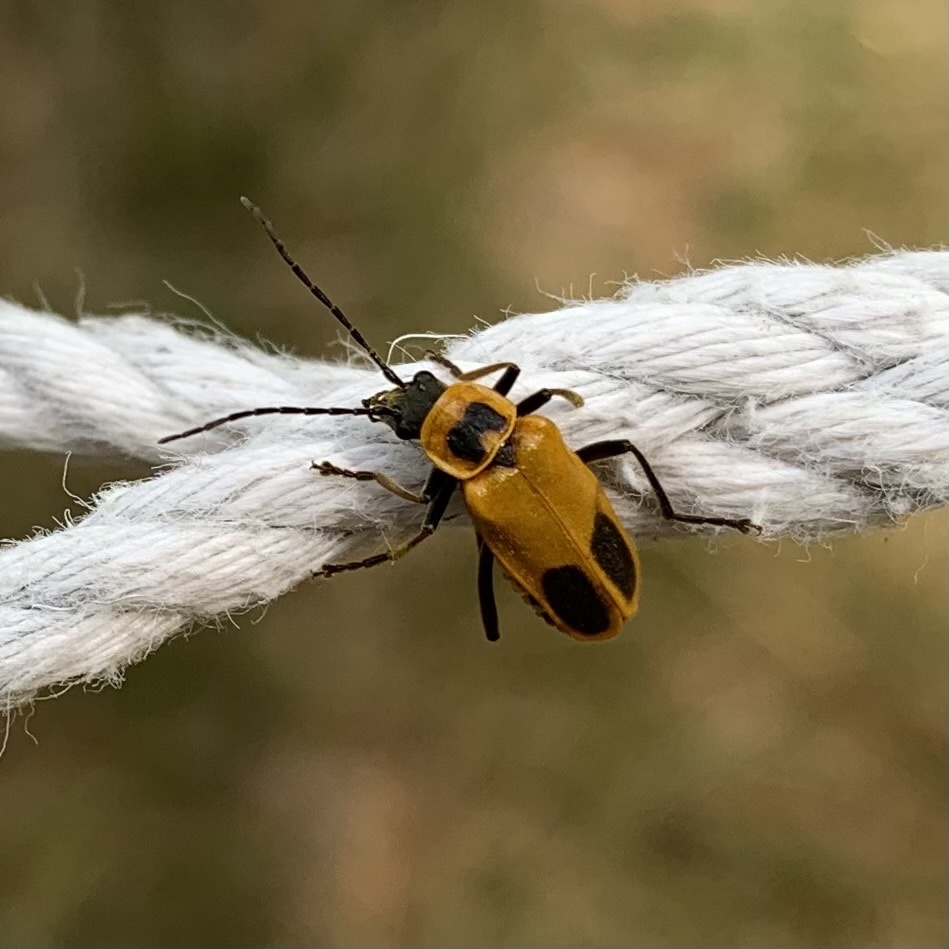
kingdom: Animalia
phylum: Arthropoda
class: Insecta
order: Coleoptera
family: Cantharidae
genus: Chauliognathus
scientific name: Chauliognathus pensylvanicus
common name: Goldenrod soldier beetle
